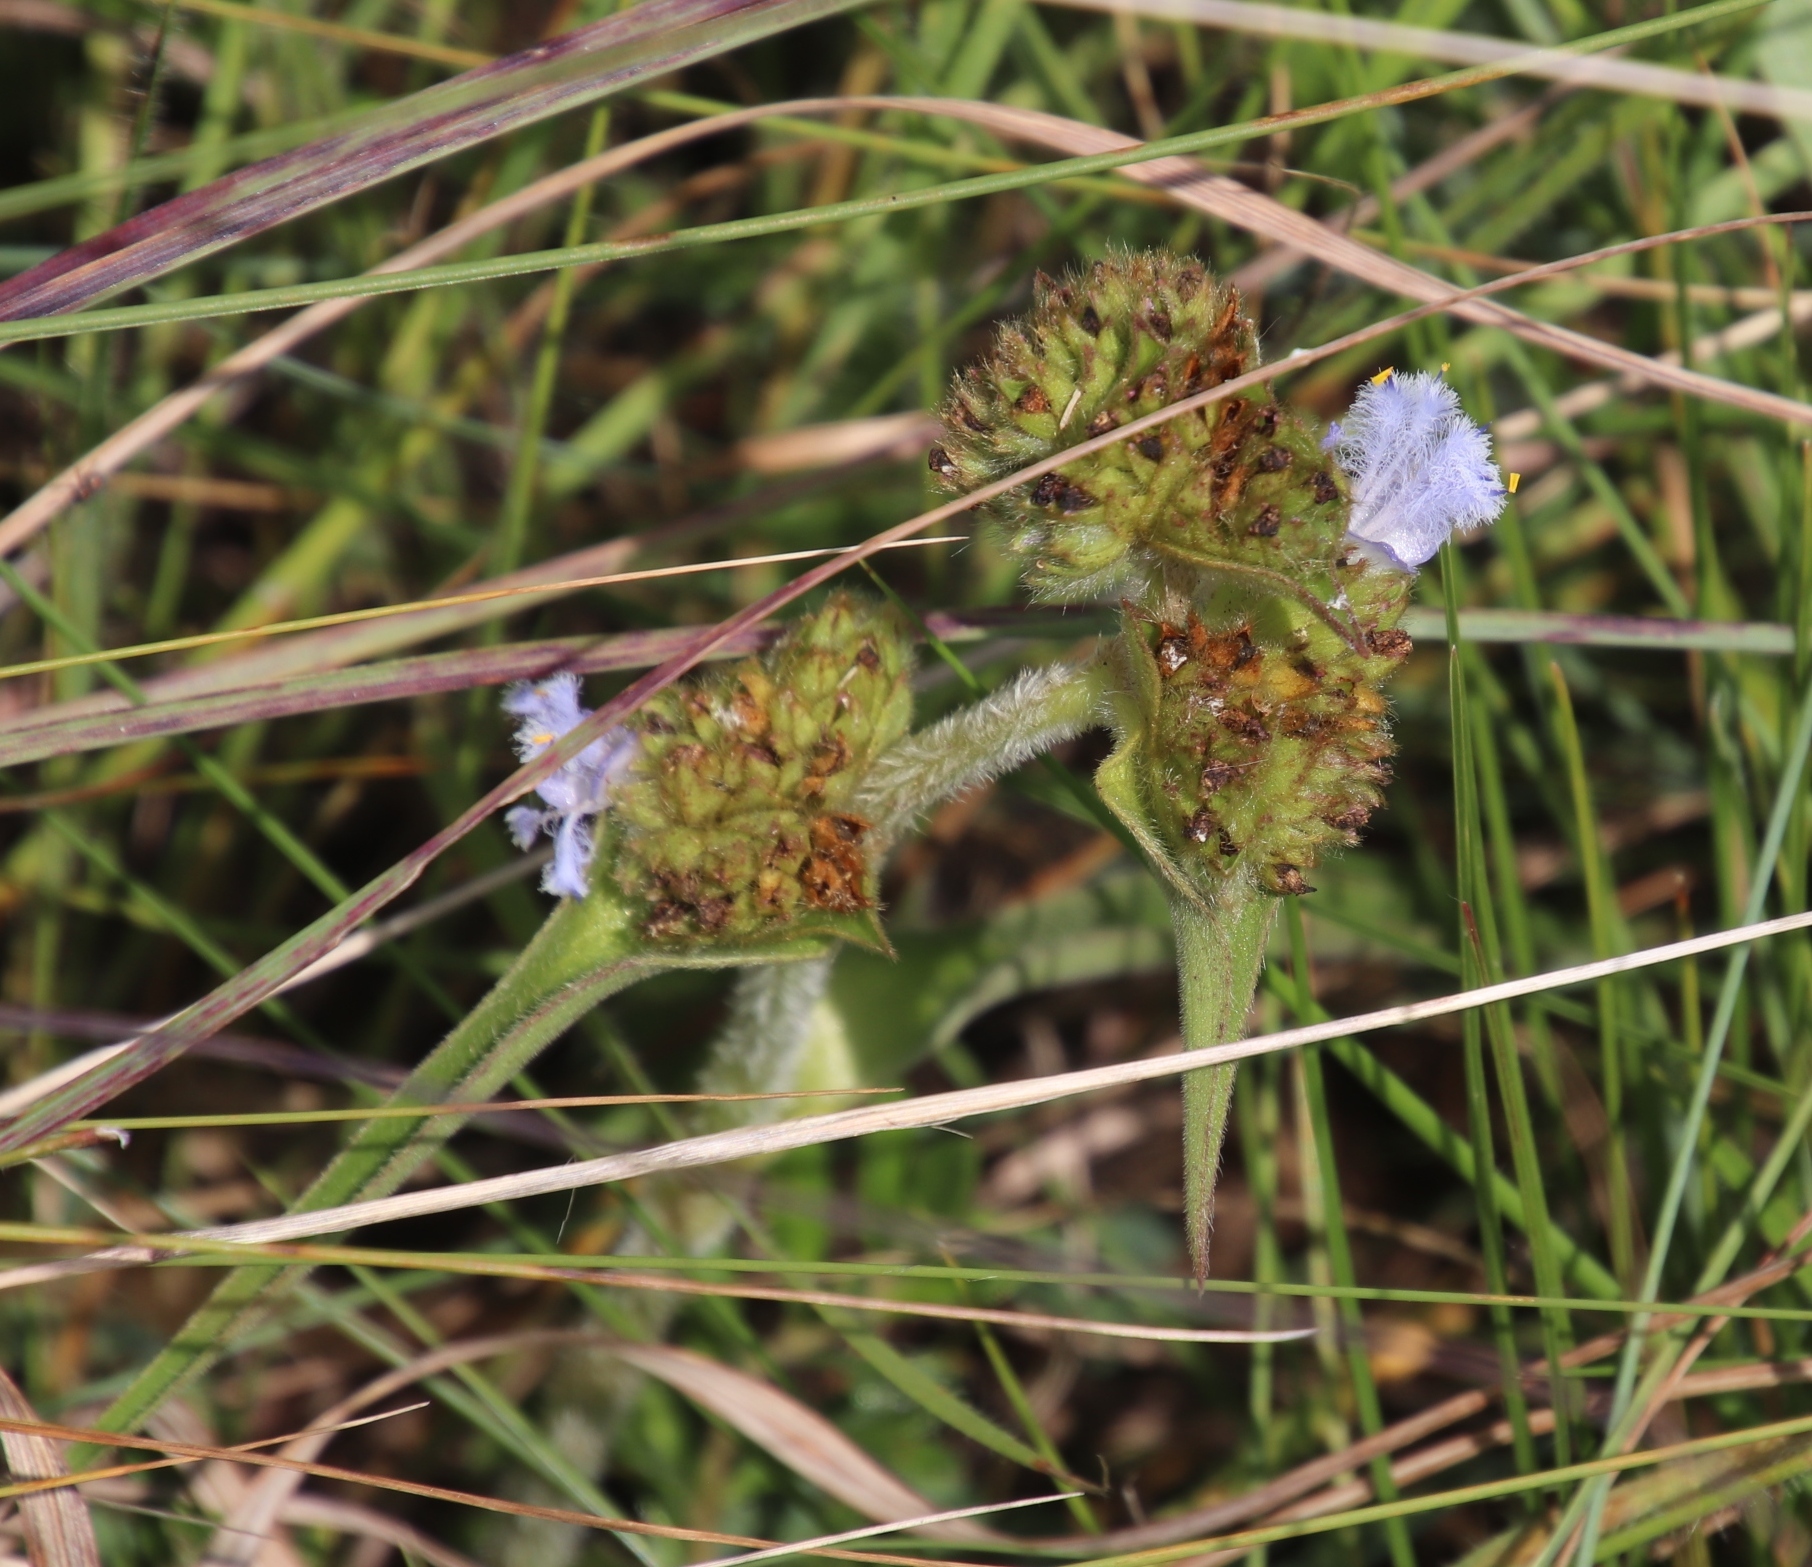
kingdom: Plantae
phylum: Tracheophyta
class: Liliopsida
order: Commelinales
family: Commelinaceae
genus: Cyanotis
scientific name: Cyanotis speciosa
